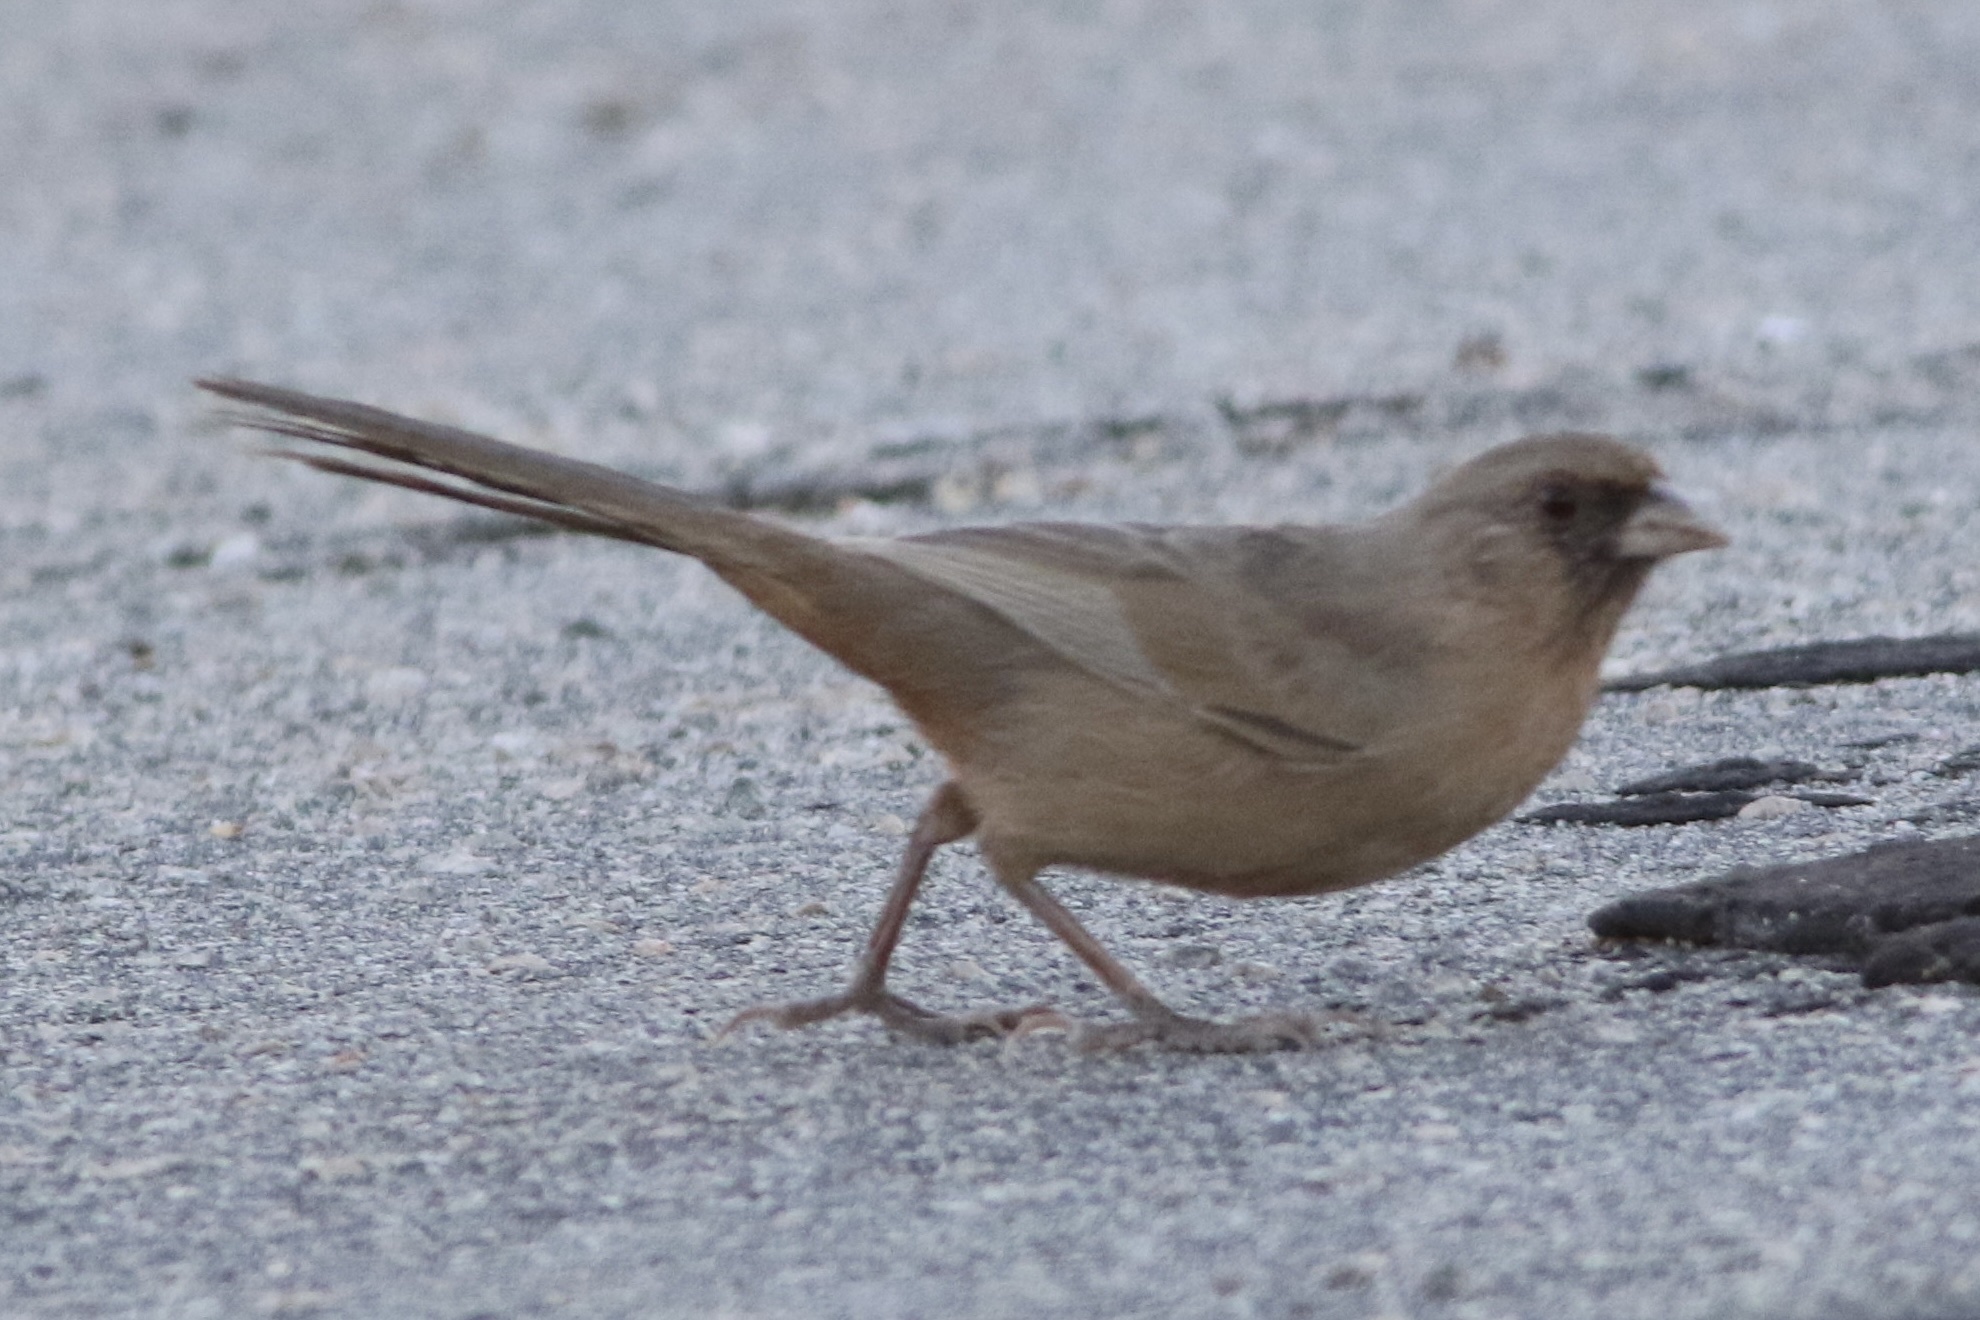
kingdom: Animalia
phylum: Chordata
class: Aves
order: Passeriformes
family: Passerellidae
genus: Melozone
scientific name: Melozone aberti
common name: Abert's towhee
